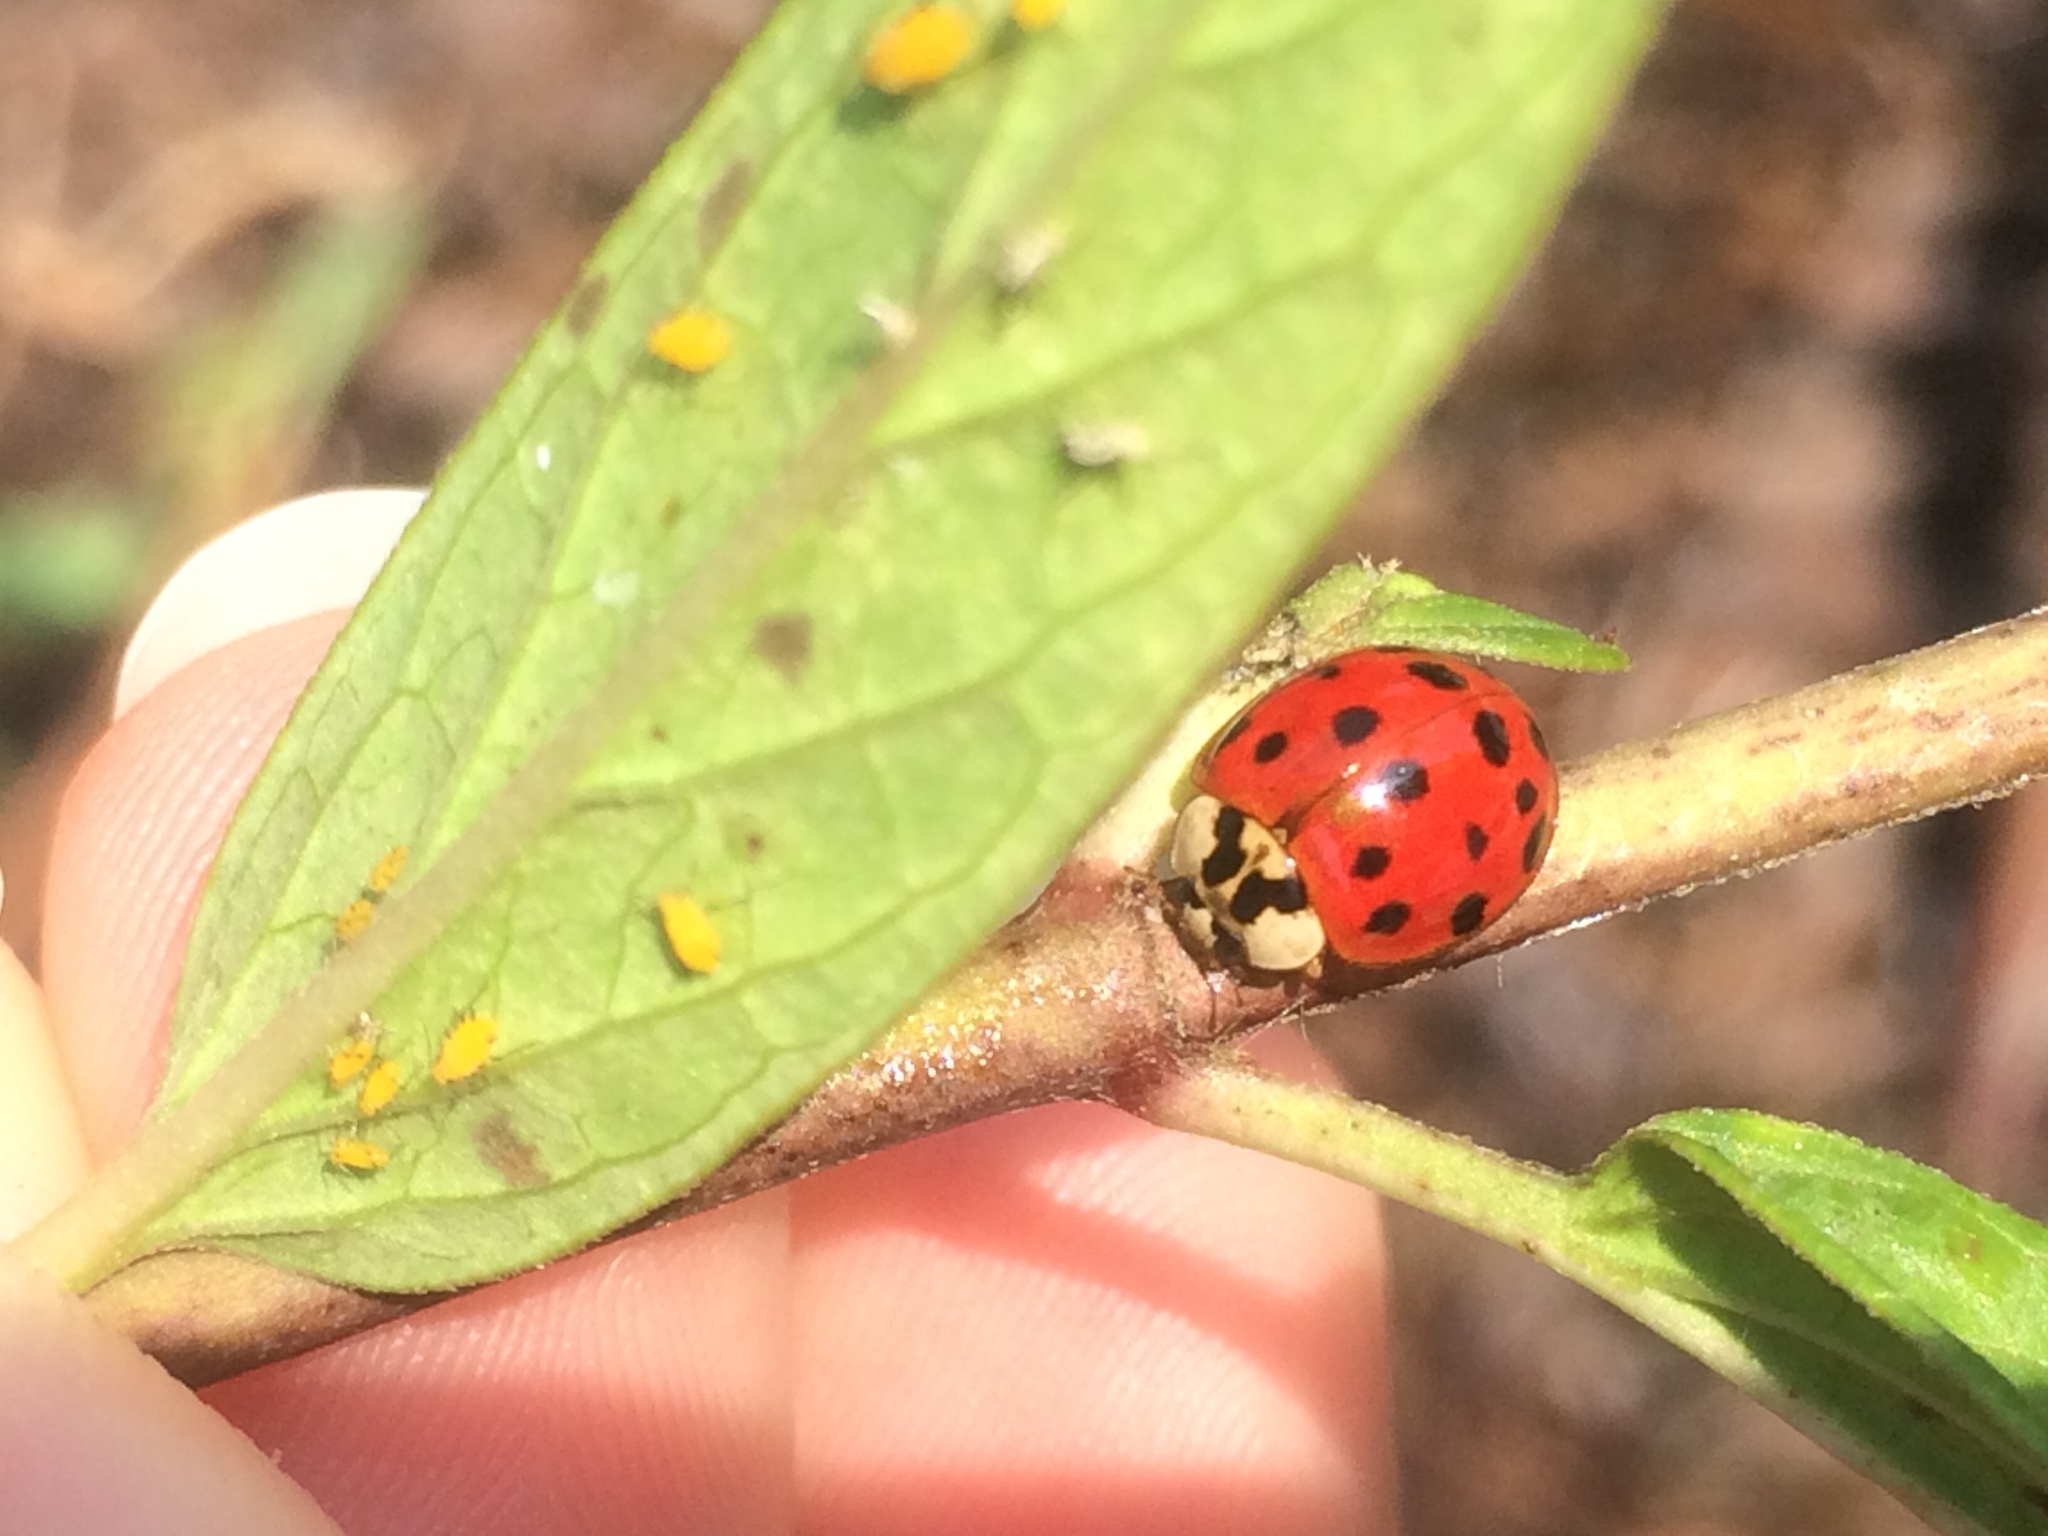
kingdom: Animalia
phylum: Arthropoda
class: Insecta
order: Coleoptera
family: Coccinellidae
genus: Harmonia
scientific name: Harmonia axyridis
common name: Harlequin ladybird
